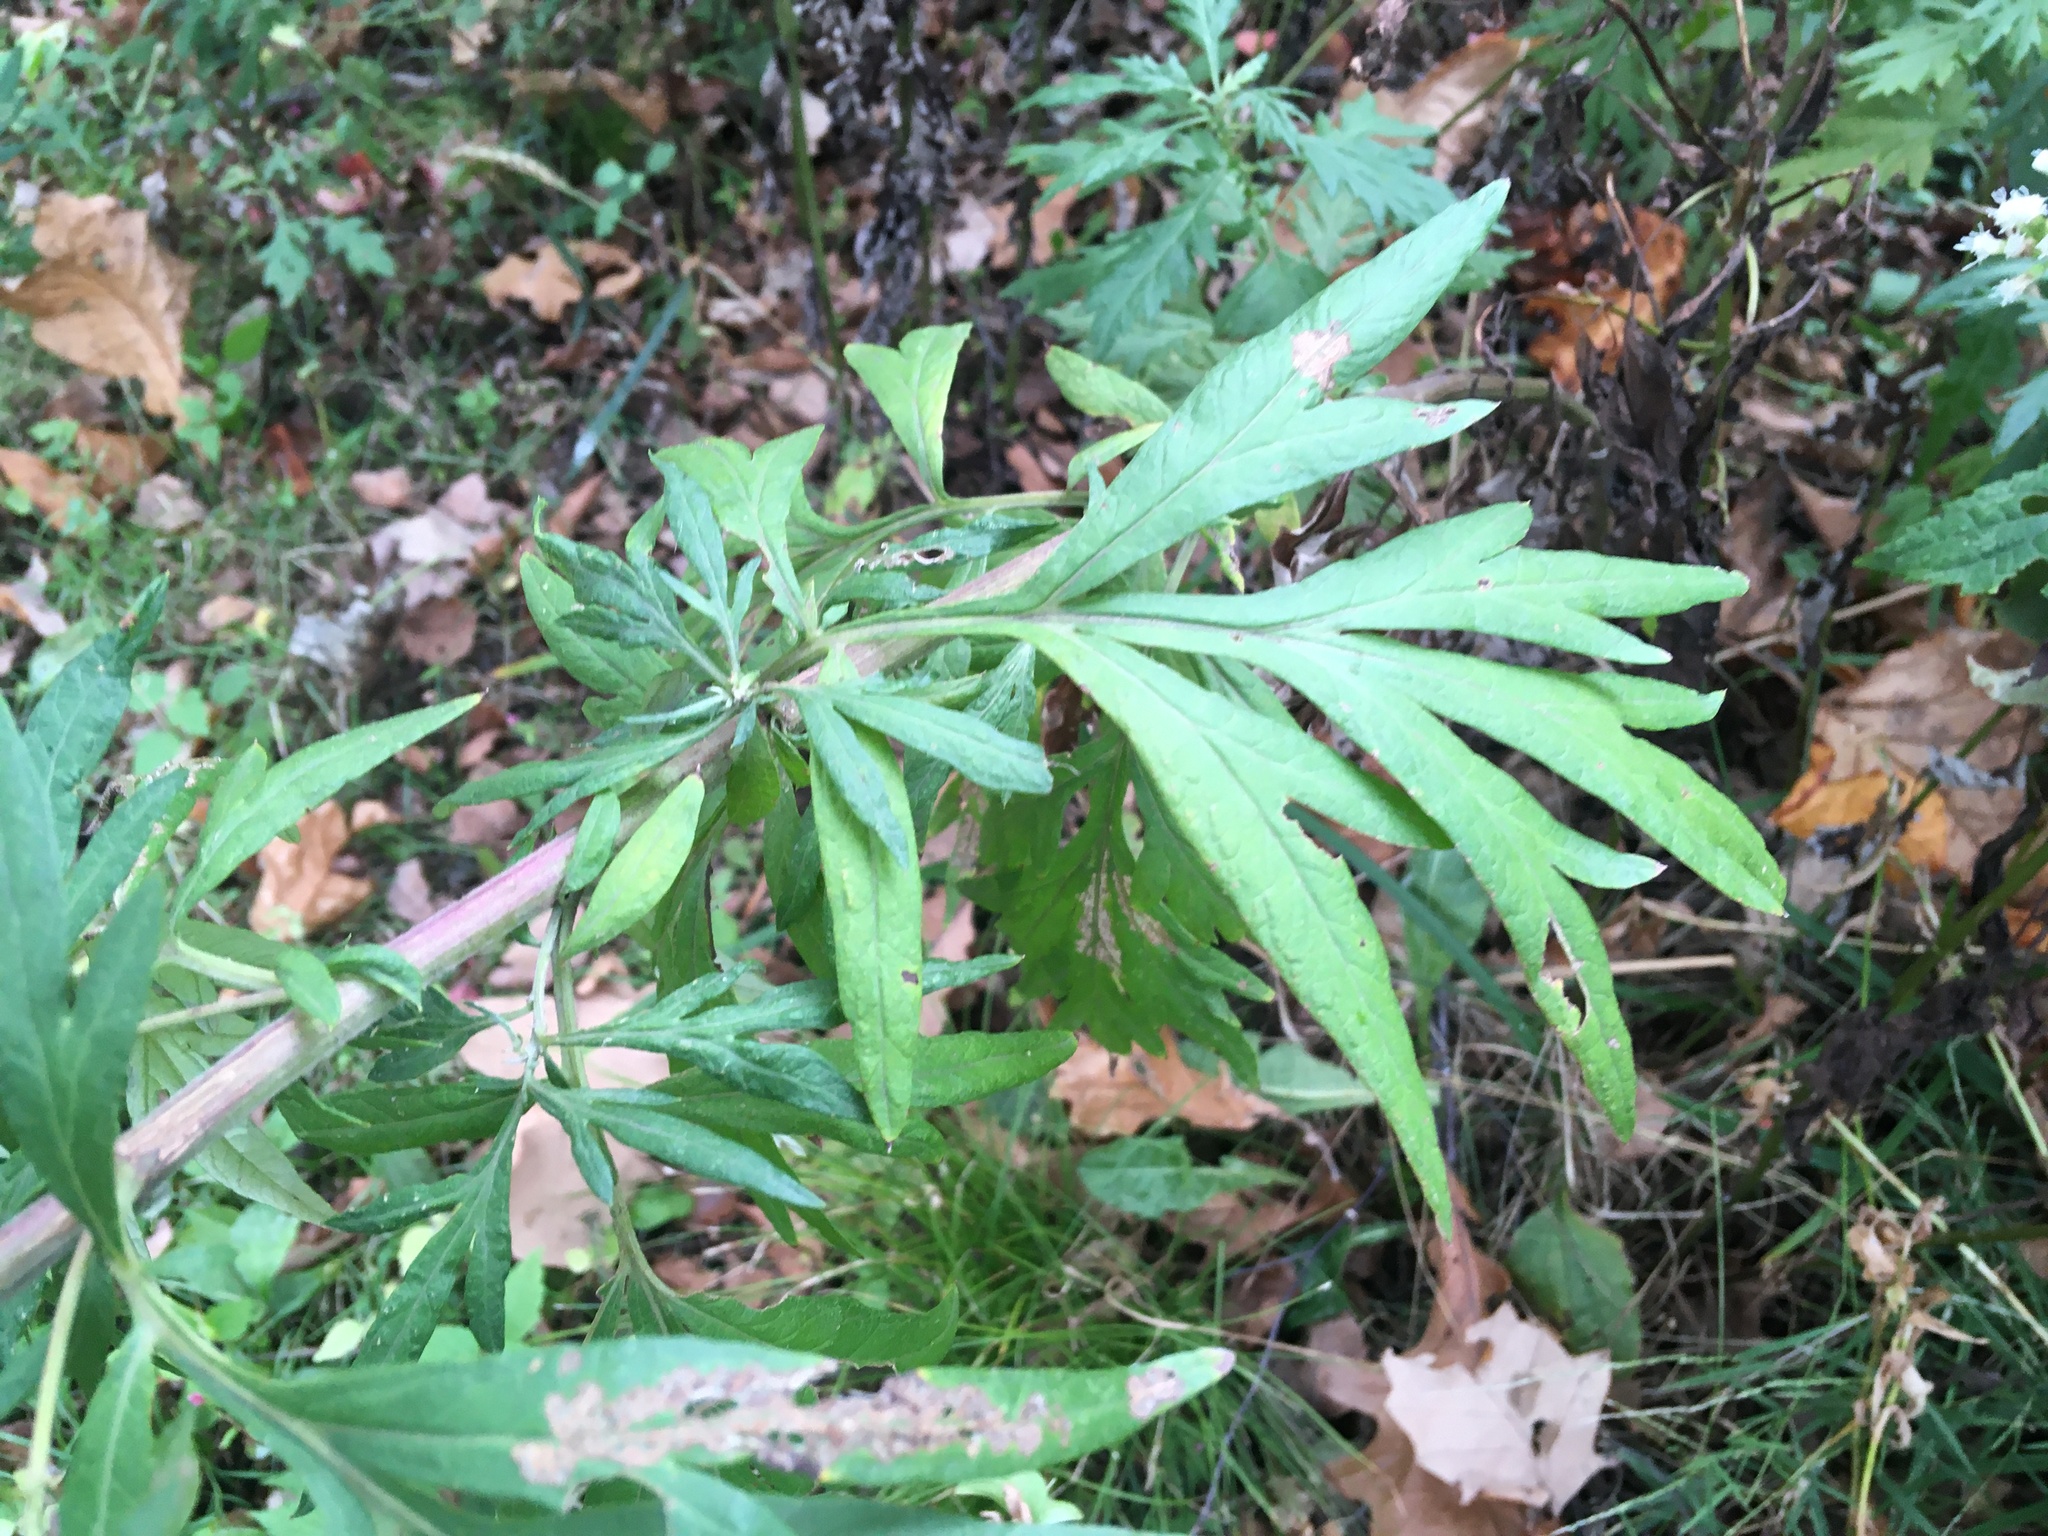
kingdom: Plantae
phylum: Tracheophyta
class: Magnoliopsida
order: Asterales
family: Asteraceae
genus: Artemisia
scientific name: Artemisia vulgaris
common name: Mugwort
